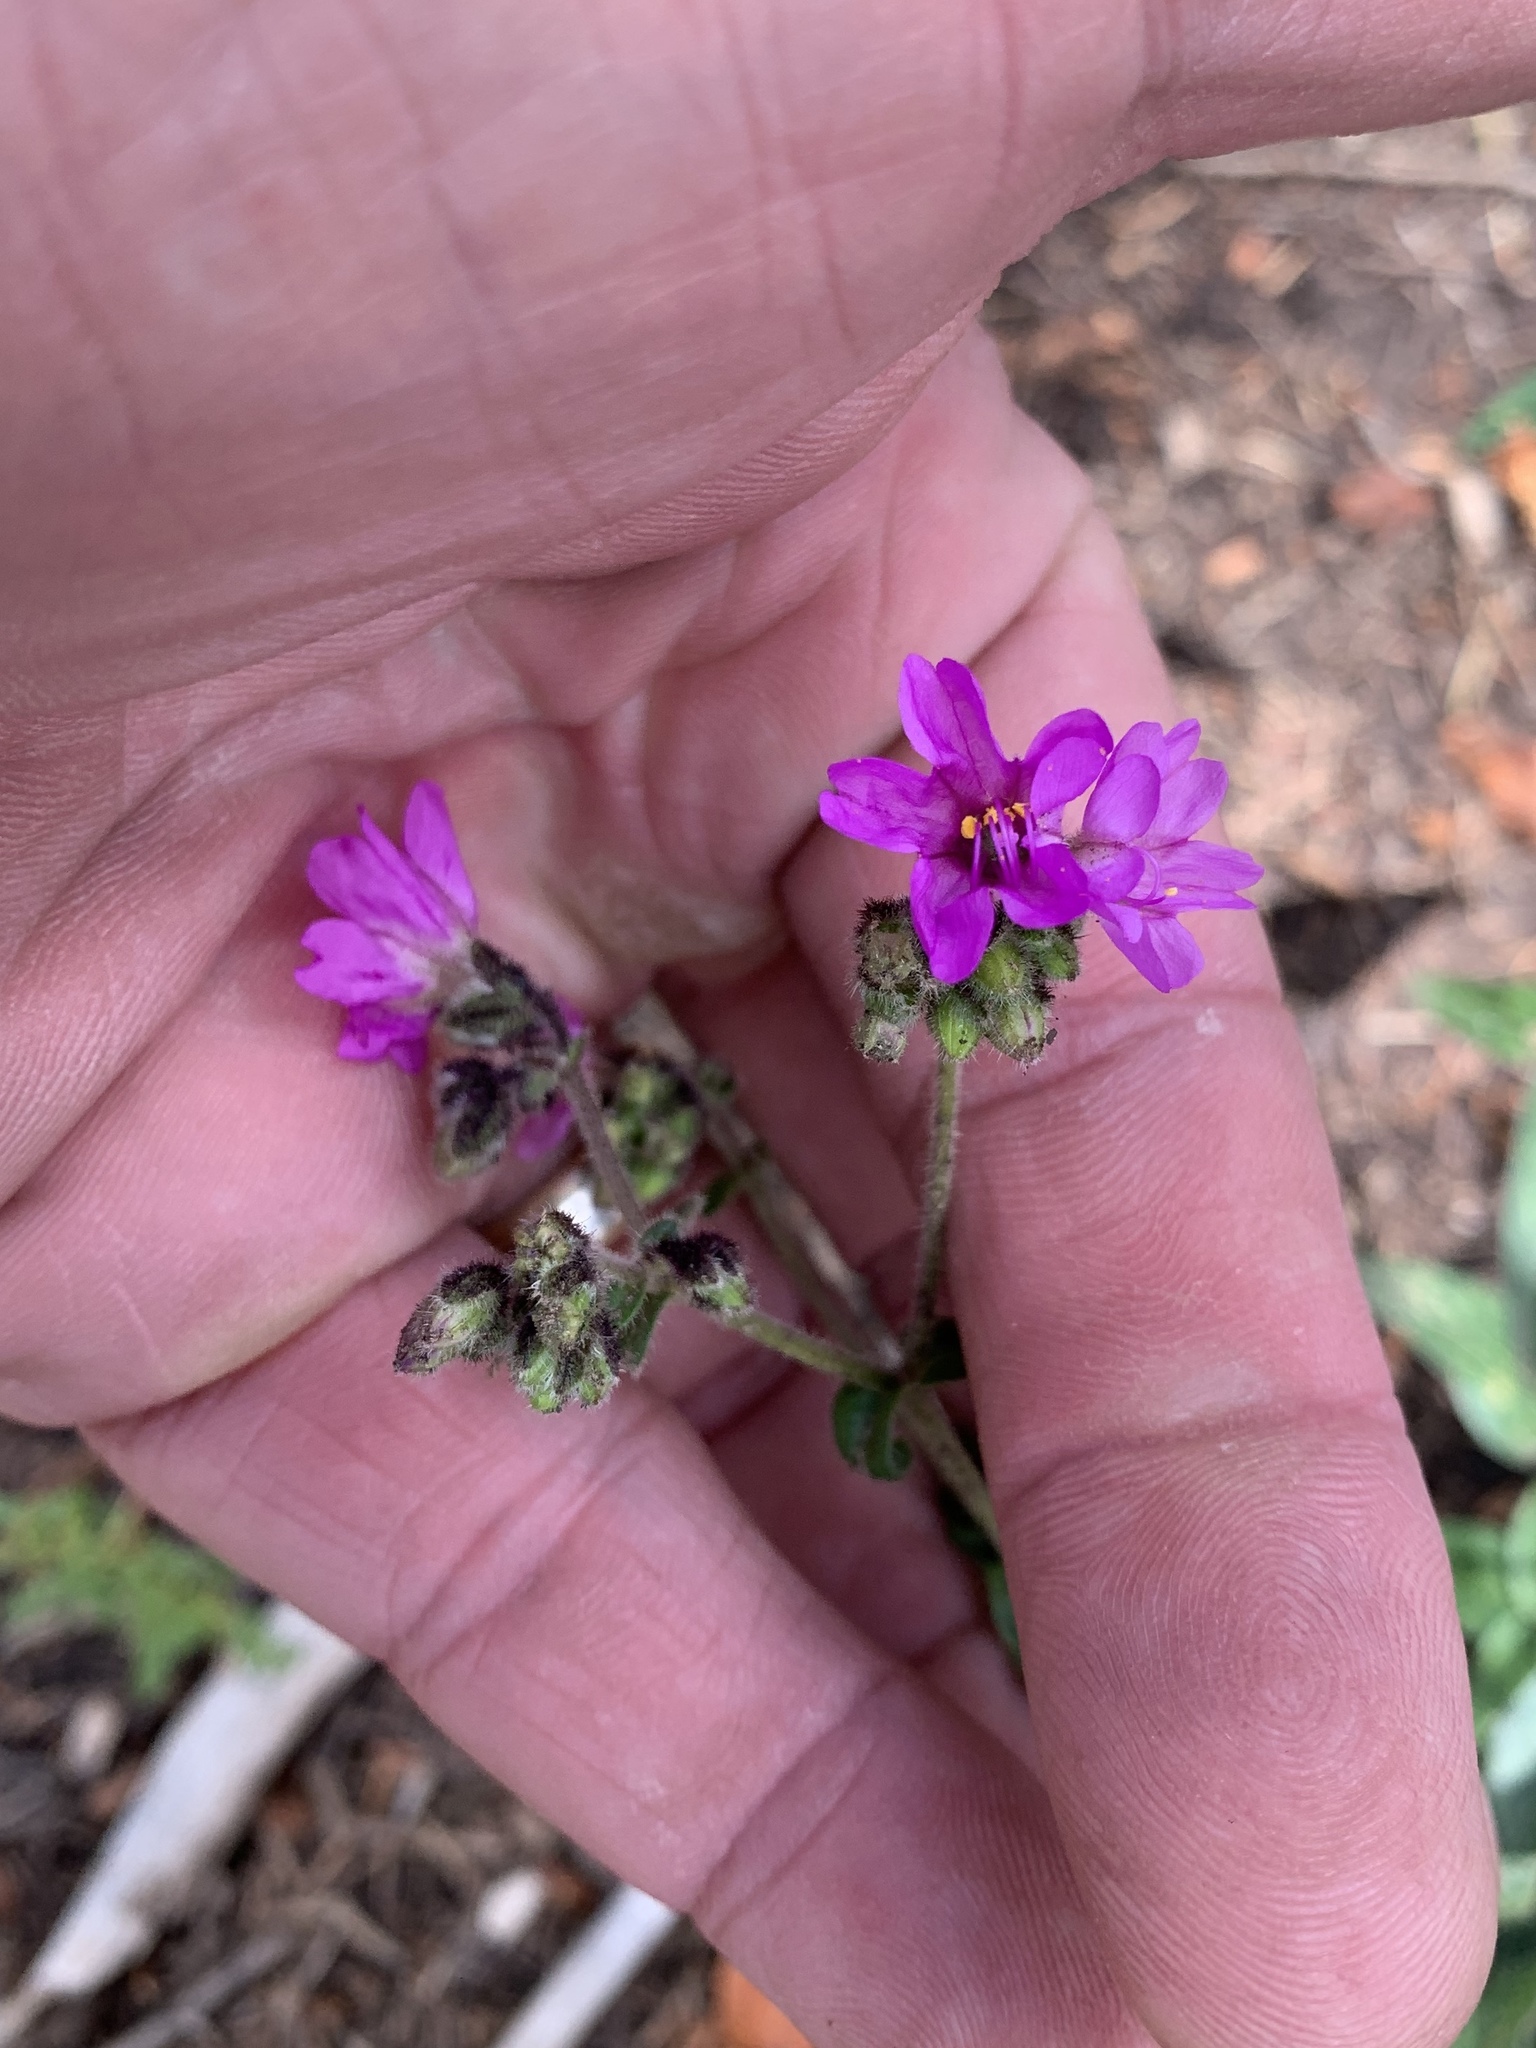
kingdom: Plantae
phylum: Tracheophyta
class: Magnoliopsida
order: Caryophyllales
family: Nyctaginaceae
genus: Mirabilis
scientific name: Mirabilis melanotricha
